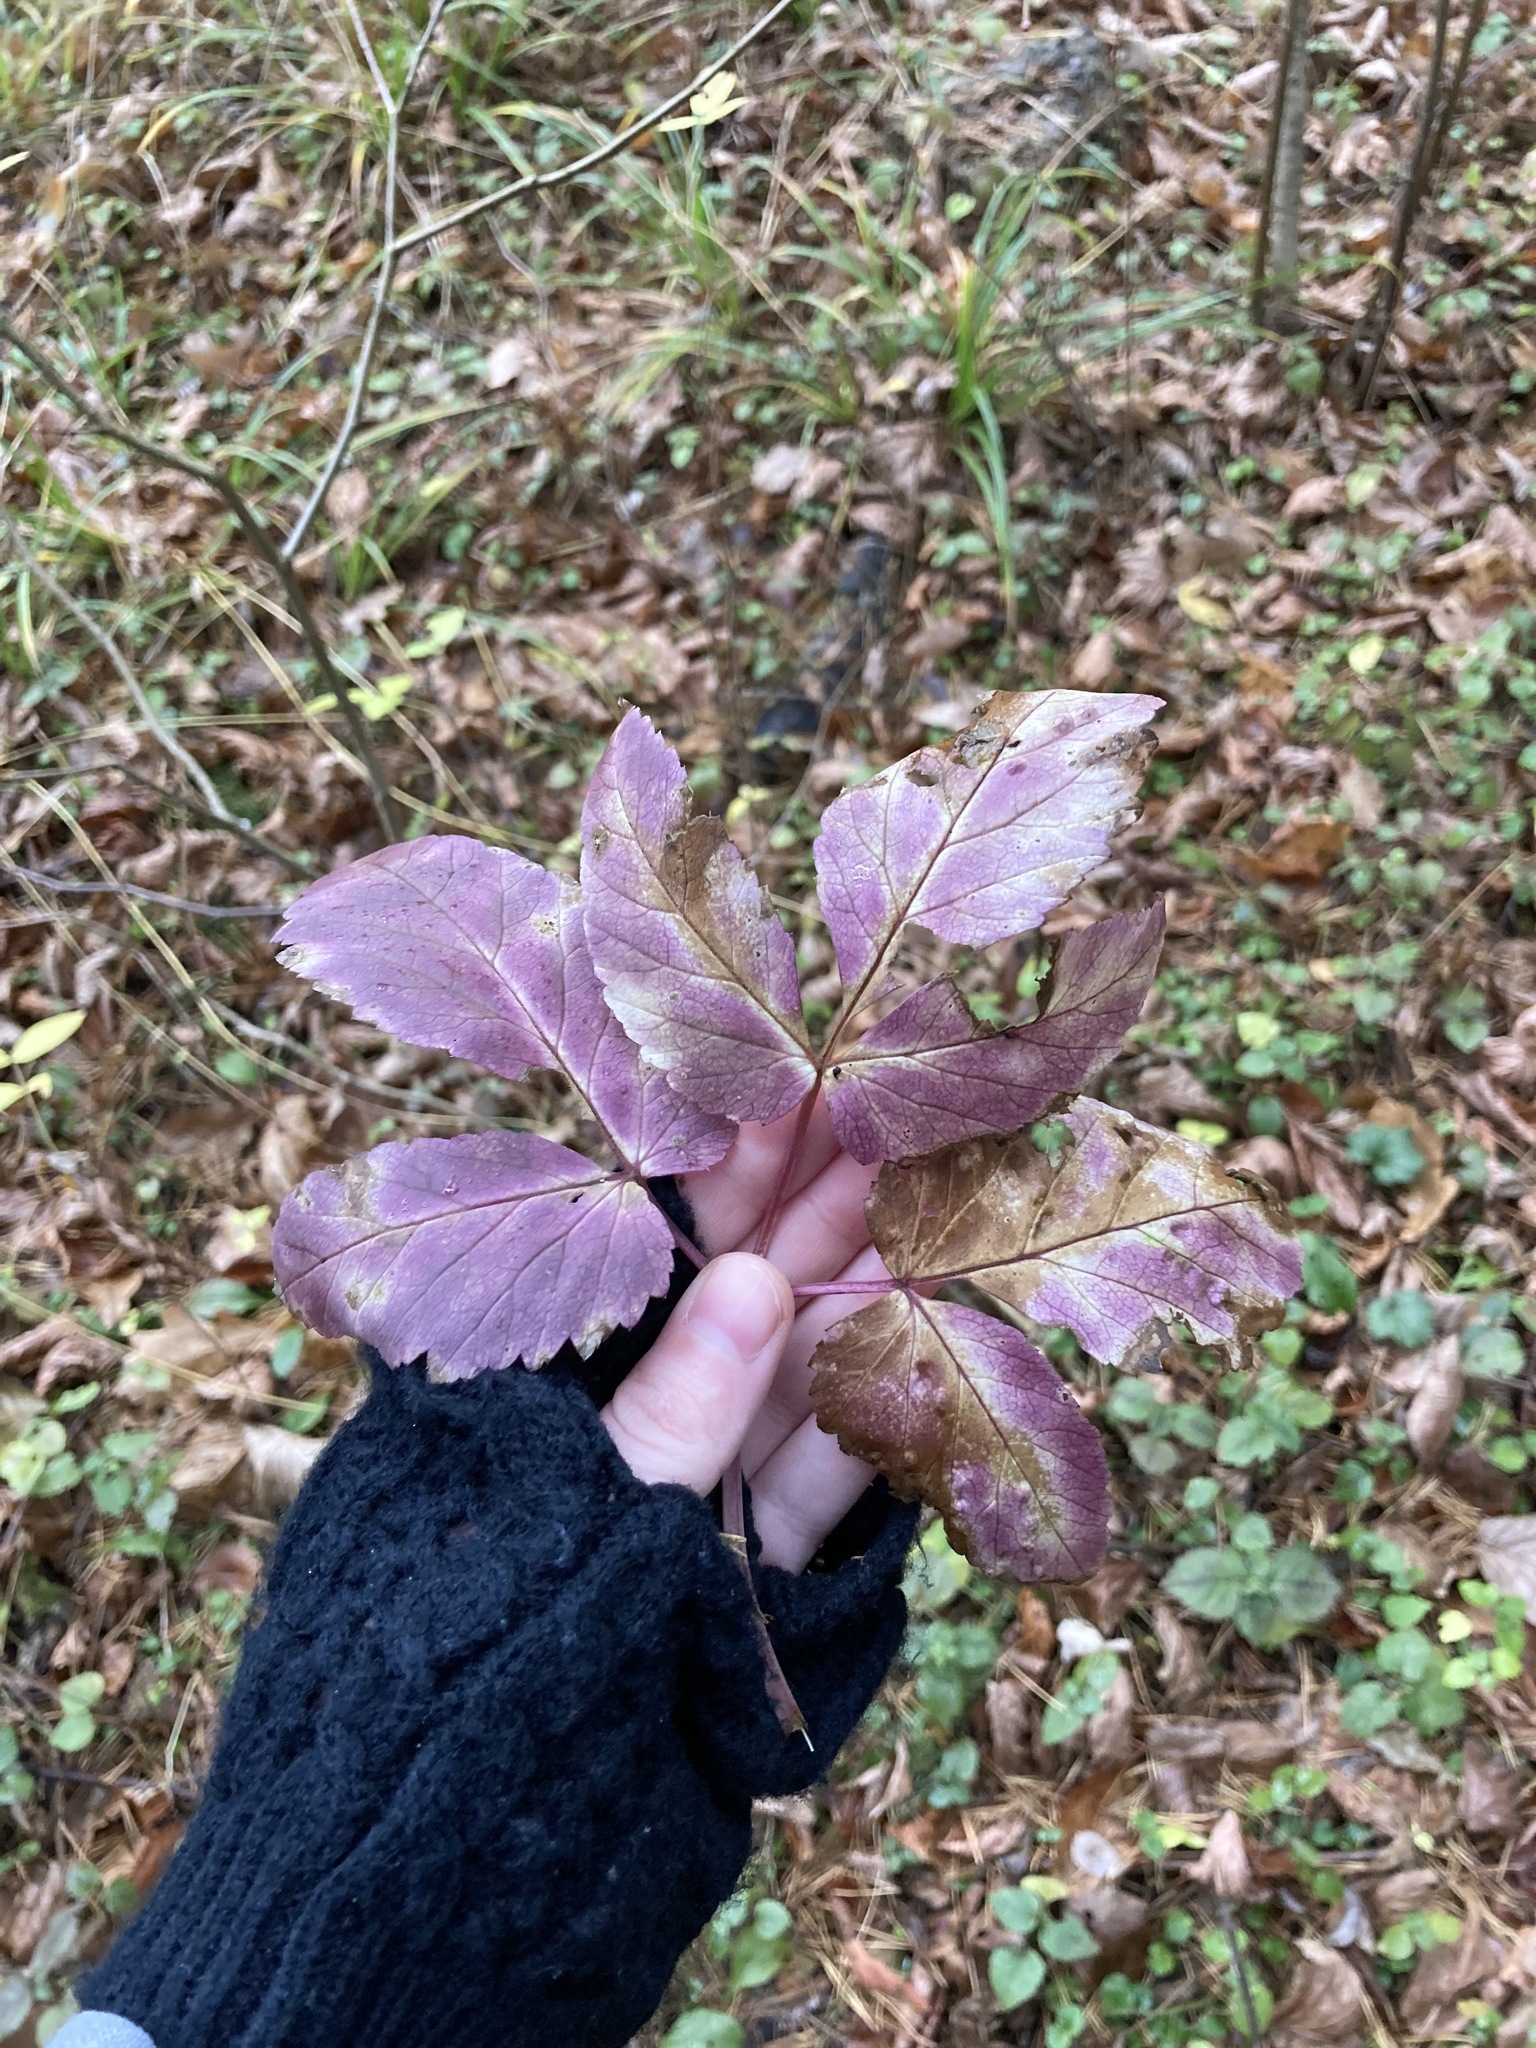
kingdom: Plantae
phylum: Tracheophyta
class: Magnoliopsida
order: Apiales
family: Apiaceae
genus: Aegopodium
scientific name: Aegopodium podagraria
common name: Ground-elder
